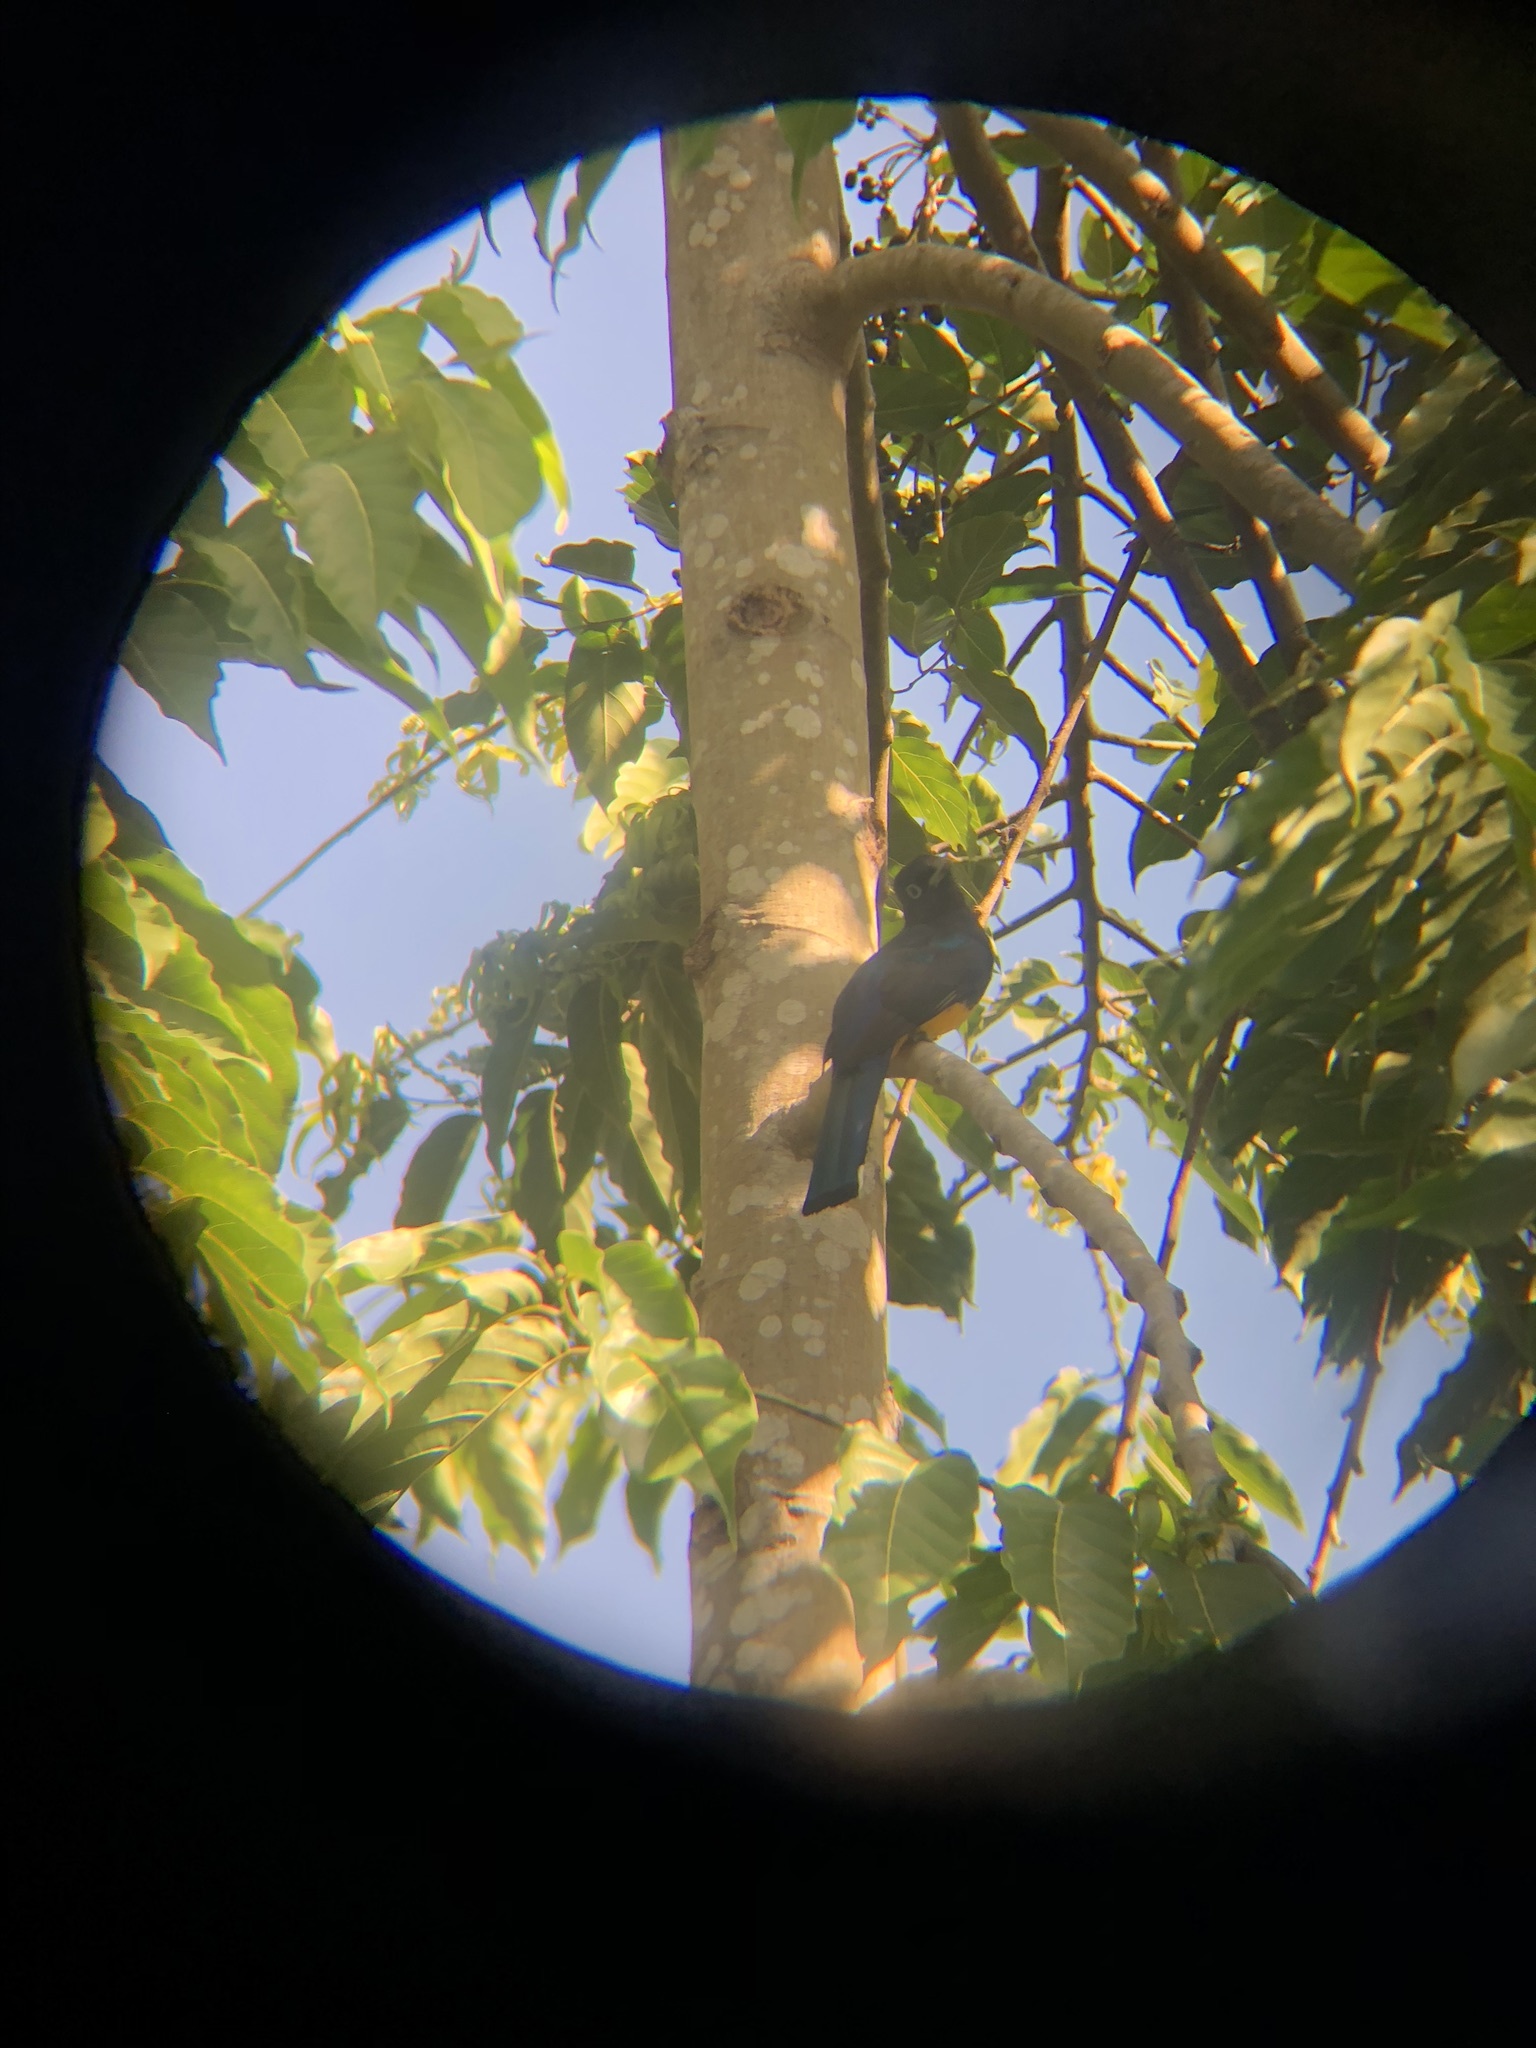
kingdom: Animalia
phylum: Chordata
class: Aves
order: Trogoniformes
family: Trogonidae
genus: Trogon
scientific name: Trogon melanocephalus
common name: Black-headed trogon
